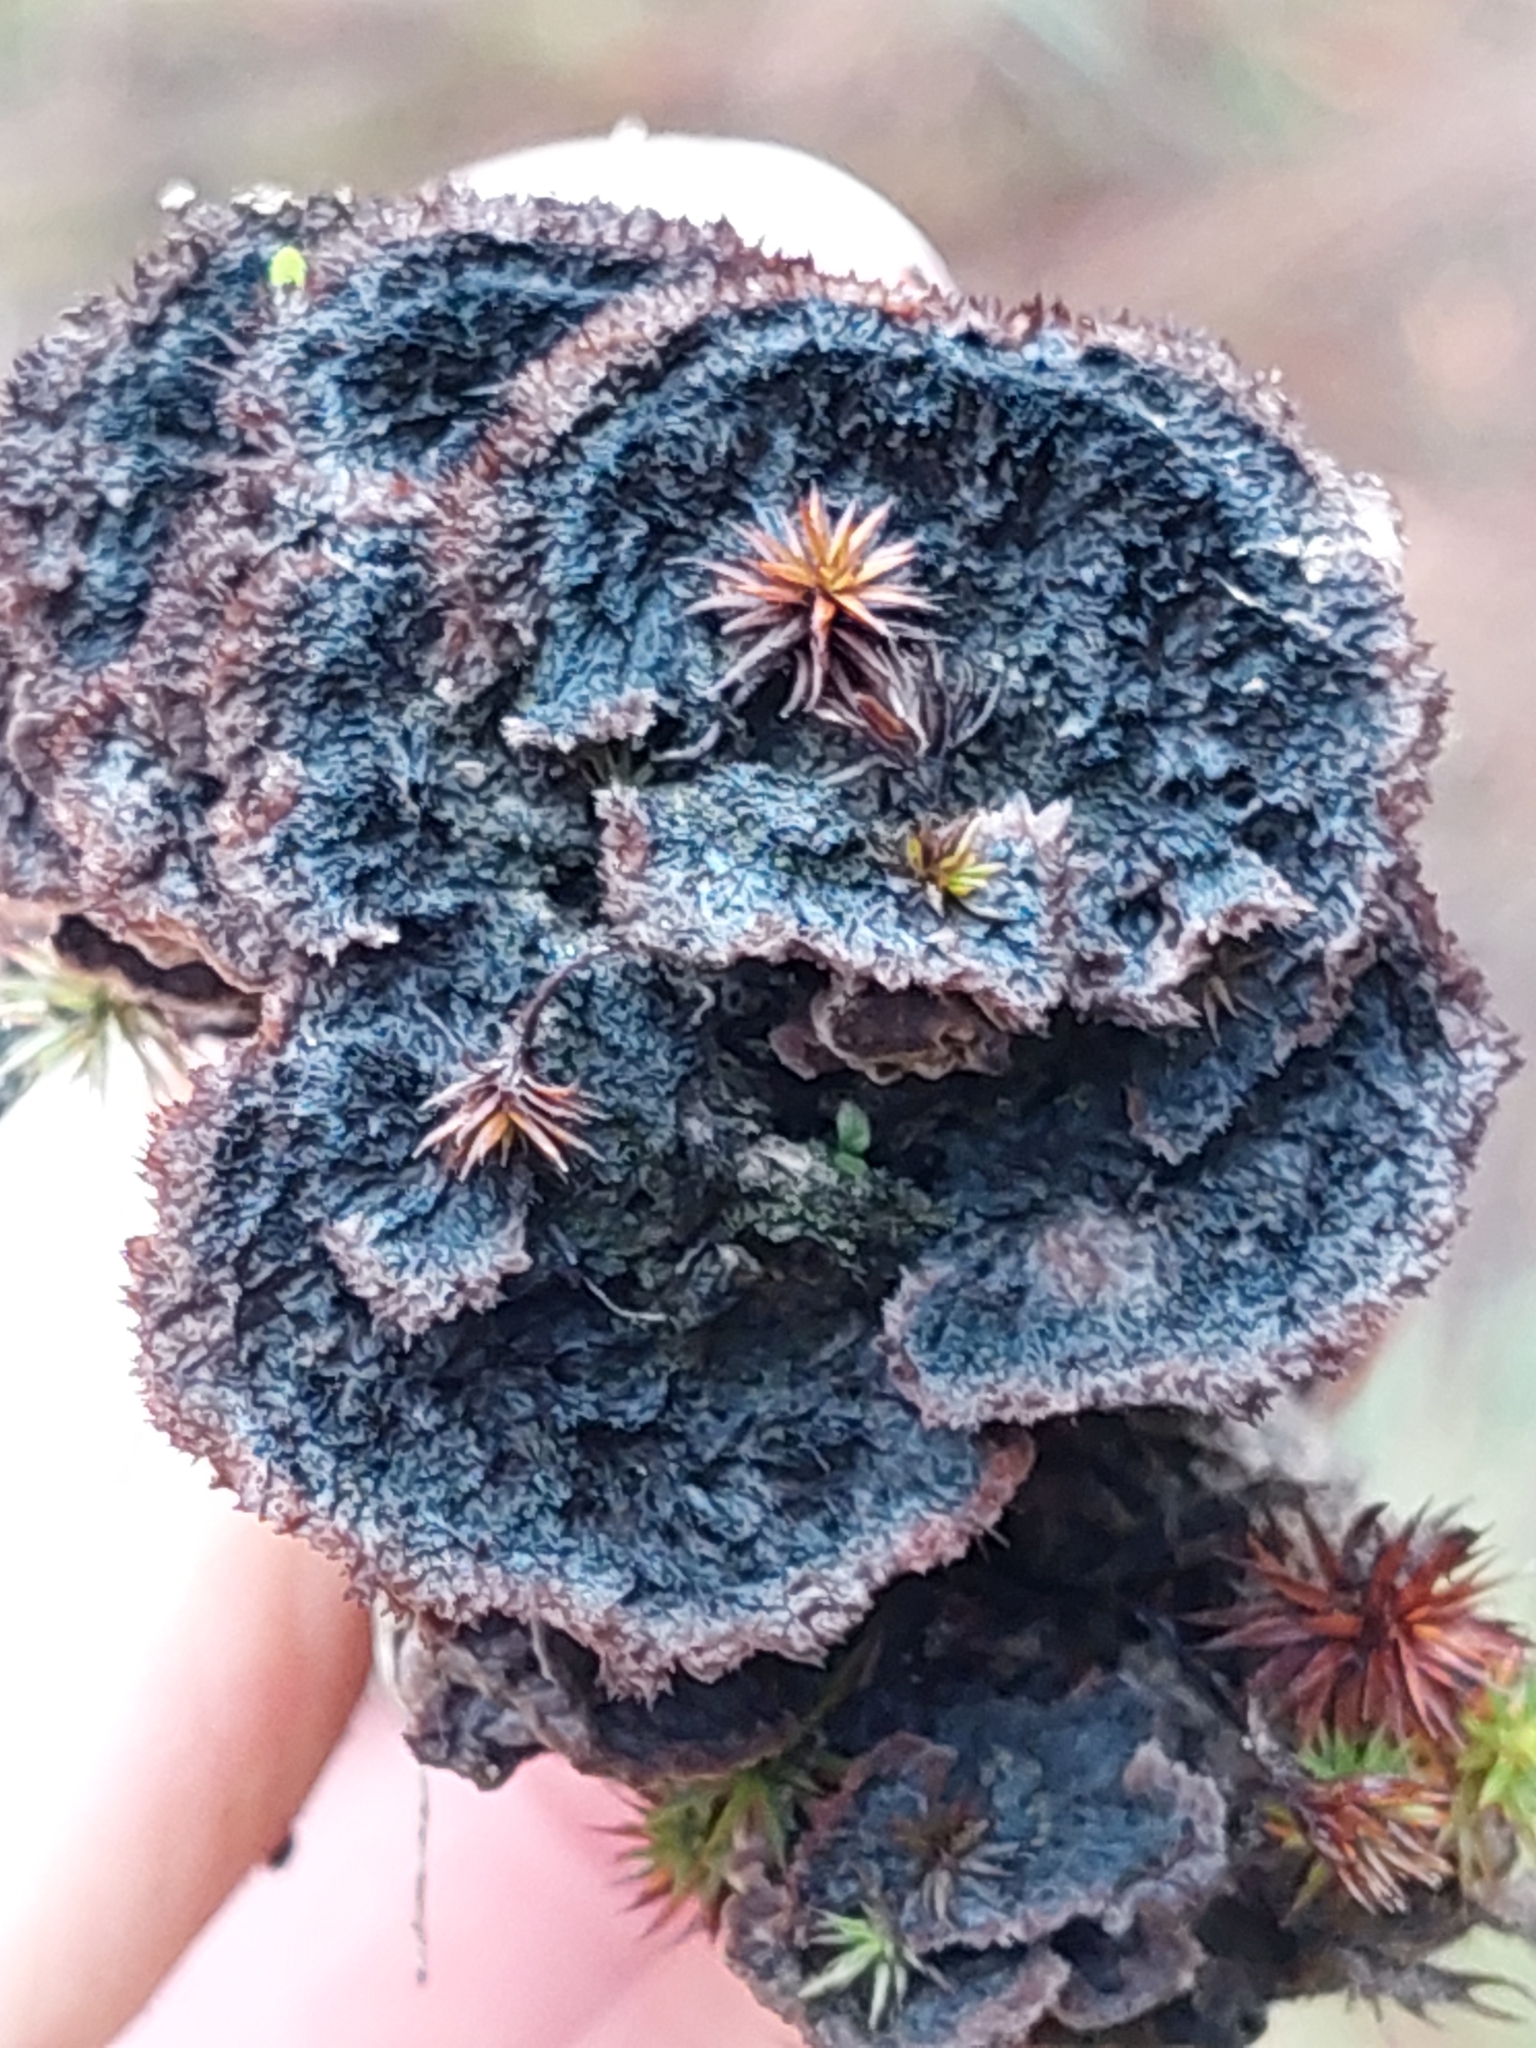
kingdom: Fungi
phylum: Basidiomycota
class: Agaricomycetes
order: Thelephorales
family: Thelephoraceae
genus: Thelephora
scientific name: Thelephora terrestris
